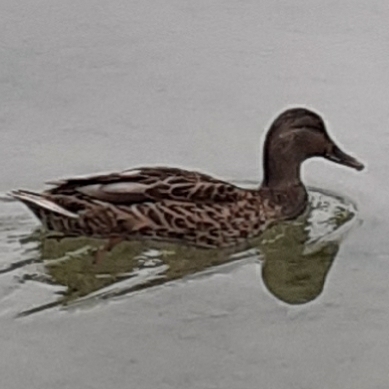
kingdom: Animalia
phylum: Chordata
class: Aves
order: Anseriformes
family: Anatidae
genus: Anas
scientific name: Anas platyrhynchos
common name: Mallard
